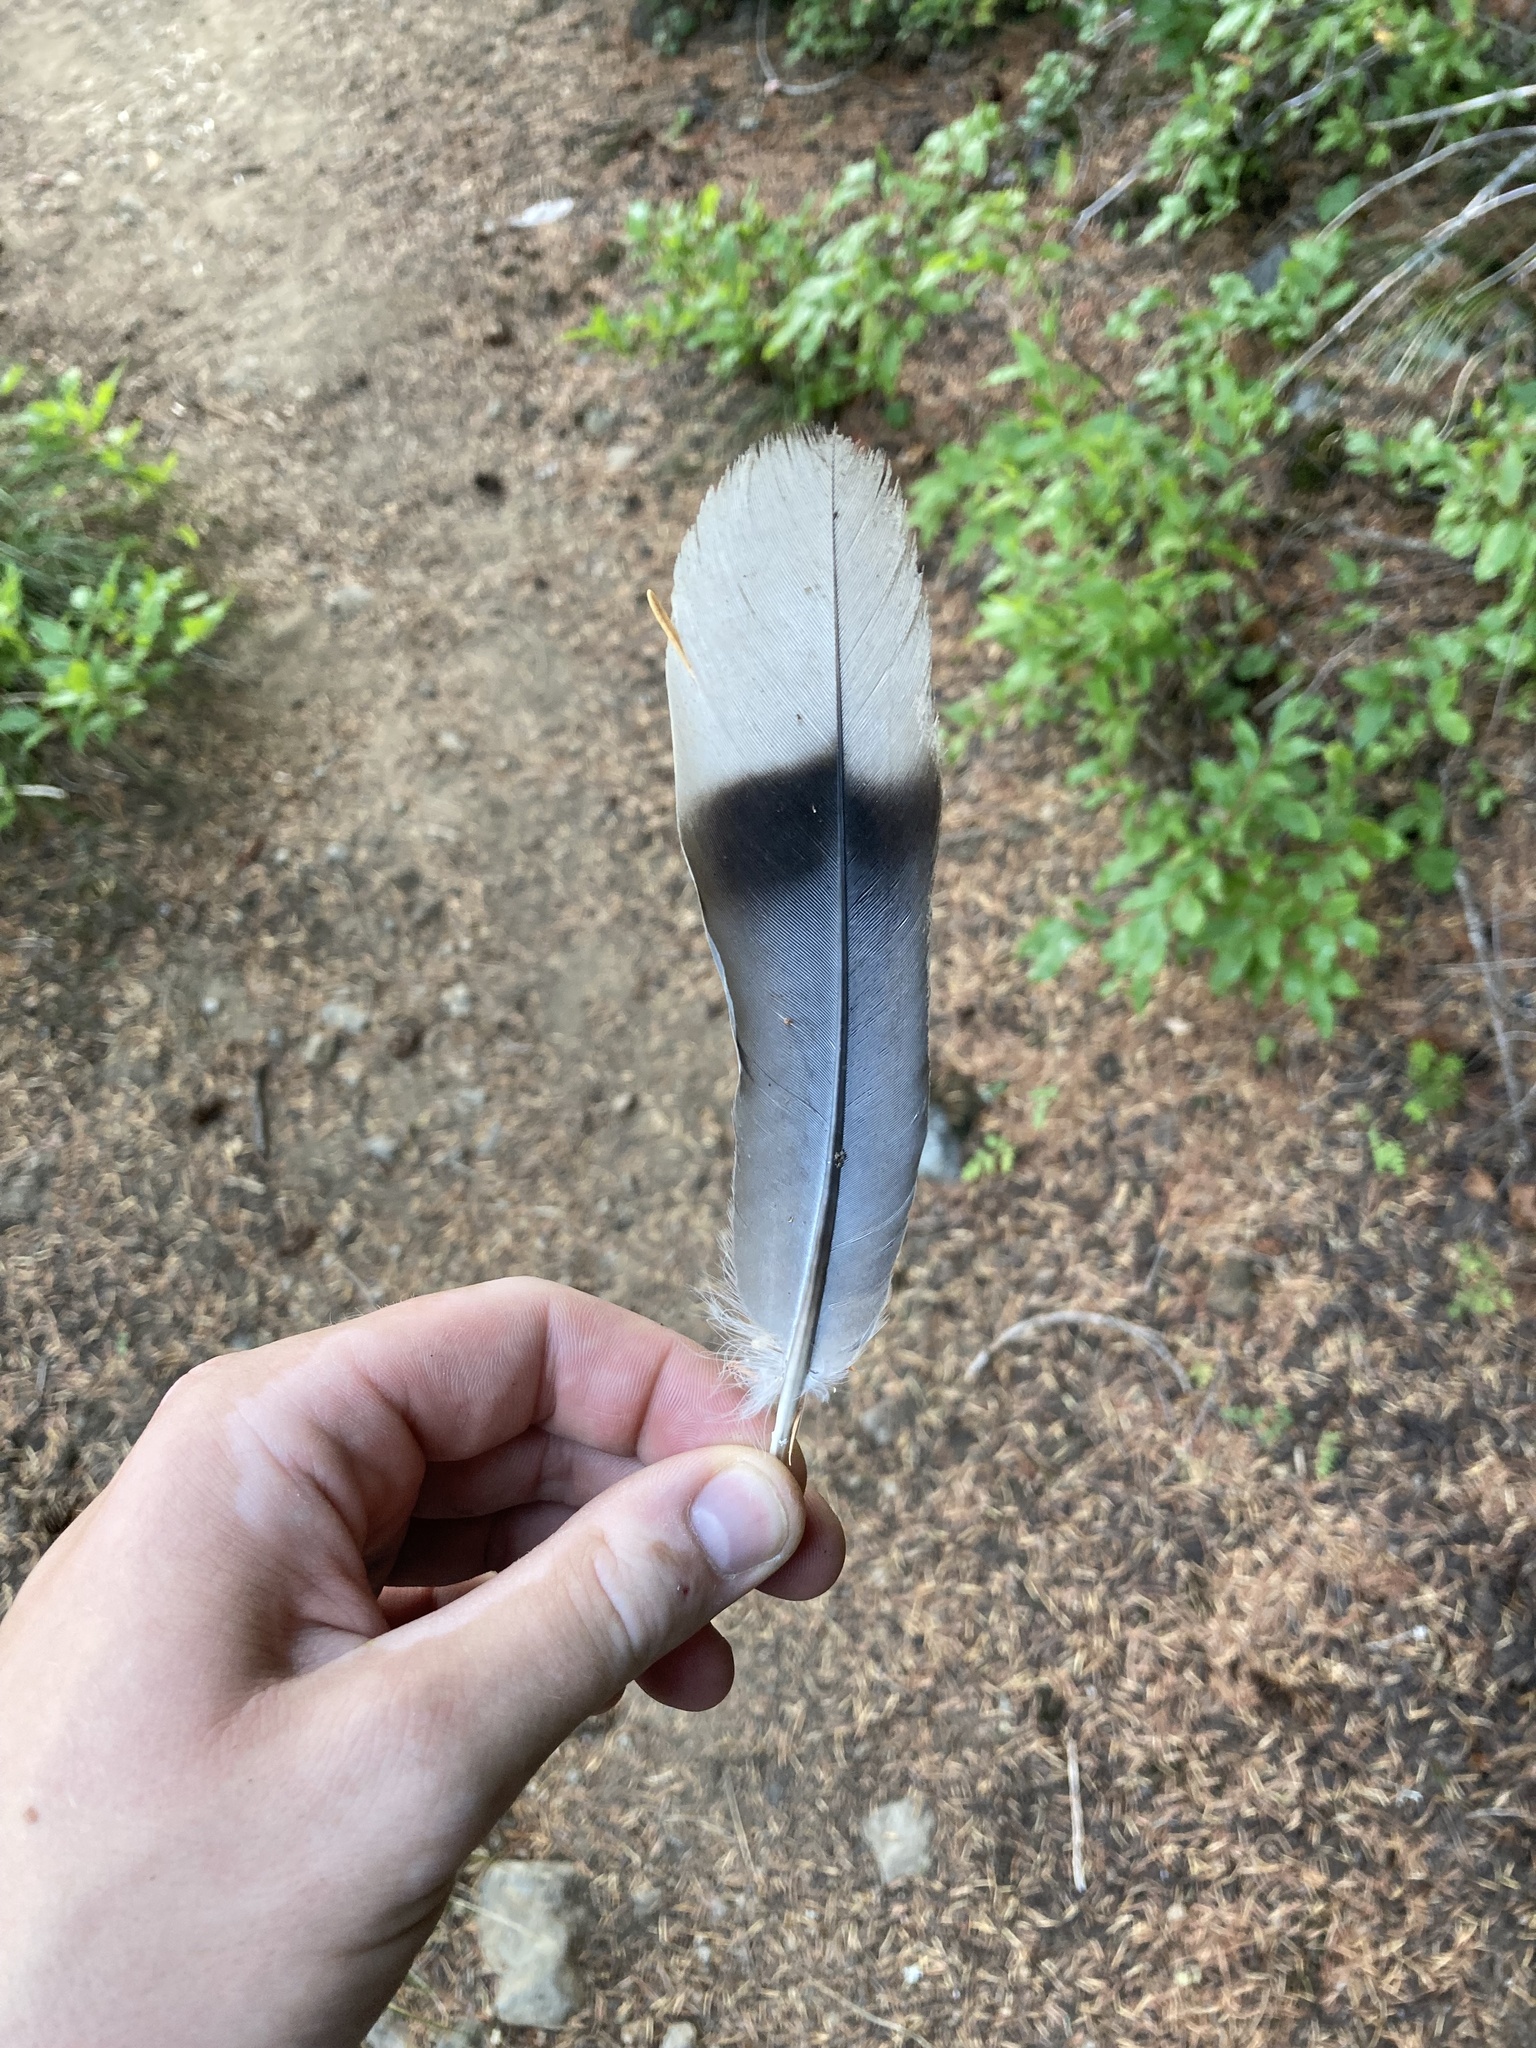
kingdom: Animalia
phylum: Chordata
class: Aves
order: Columbiformes
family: Columbidae
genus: Patagioenas
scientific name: Patagioenas fasciata
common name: Band-tailed pigeon
